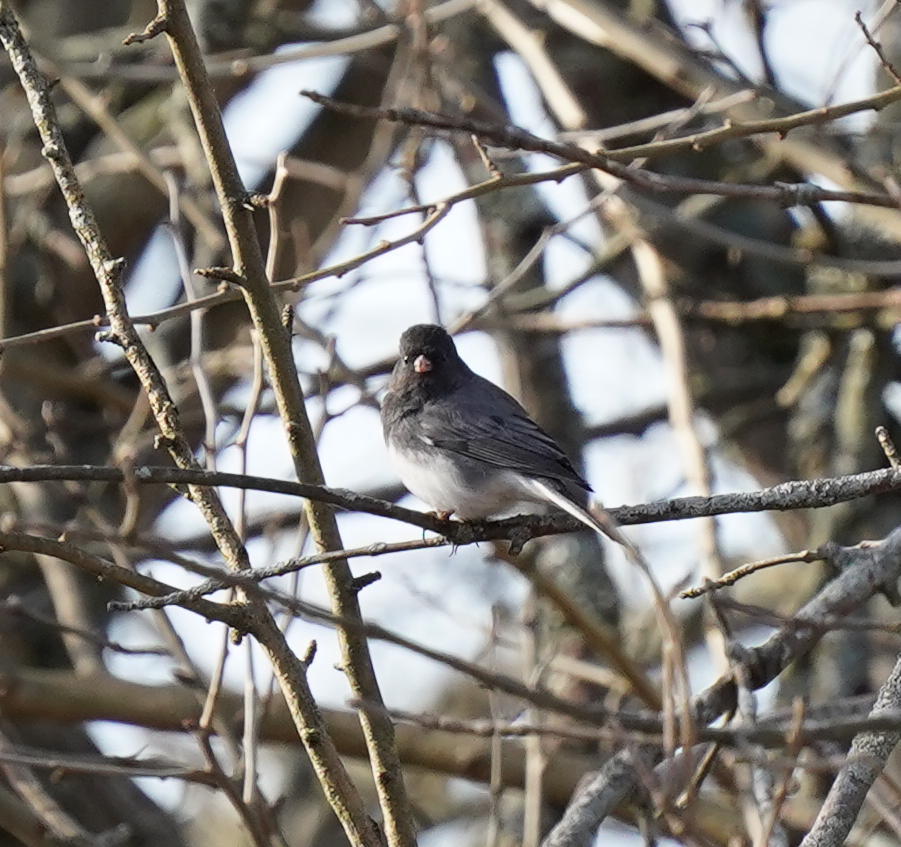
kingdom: Animalia
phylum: Chordata
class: Aves
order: Passeriformes
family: Passerellidae
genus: Junco
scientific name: Junco hyemalis
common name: Dark-eyed junco
